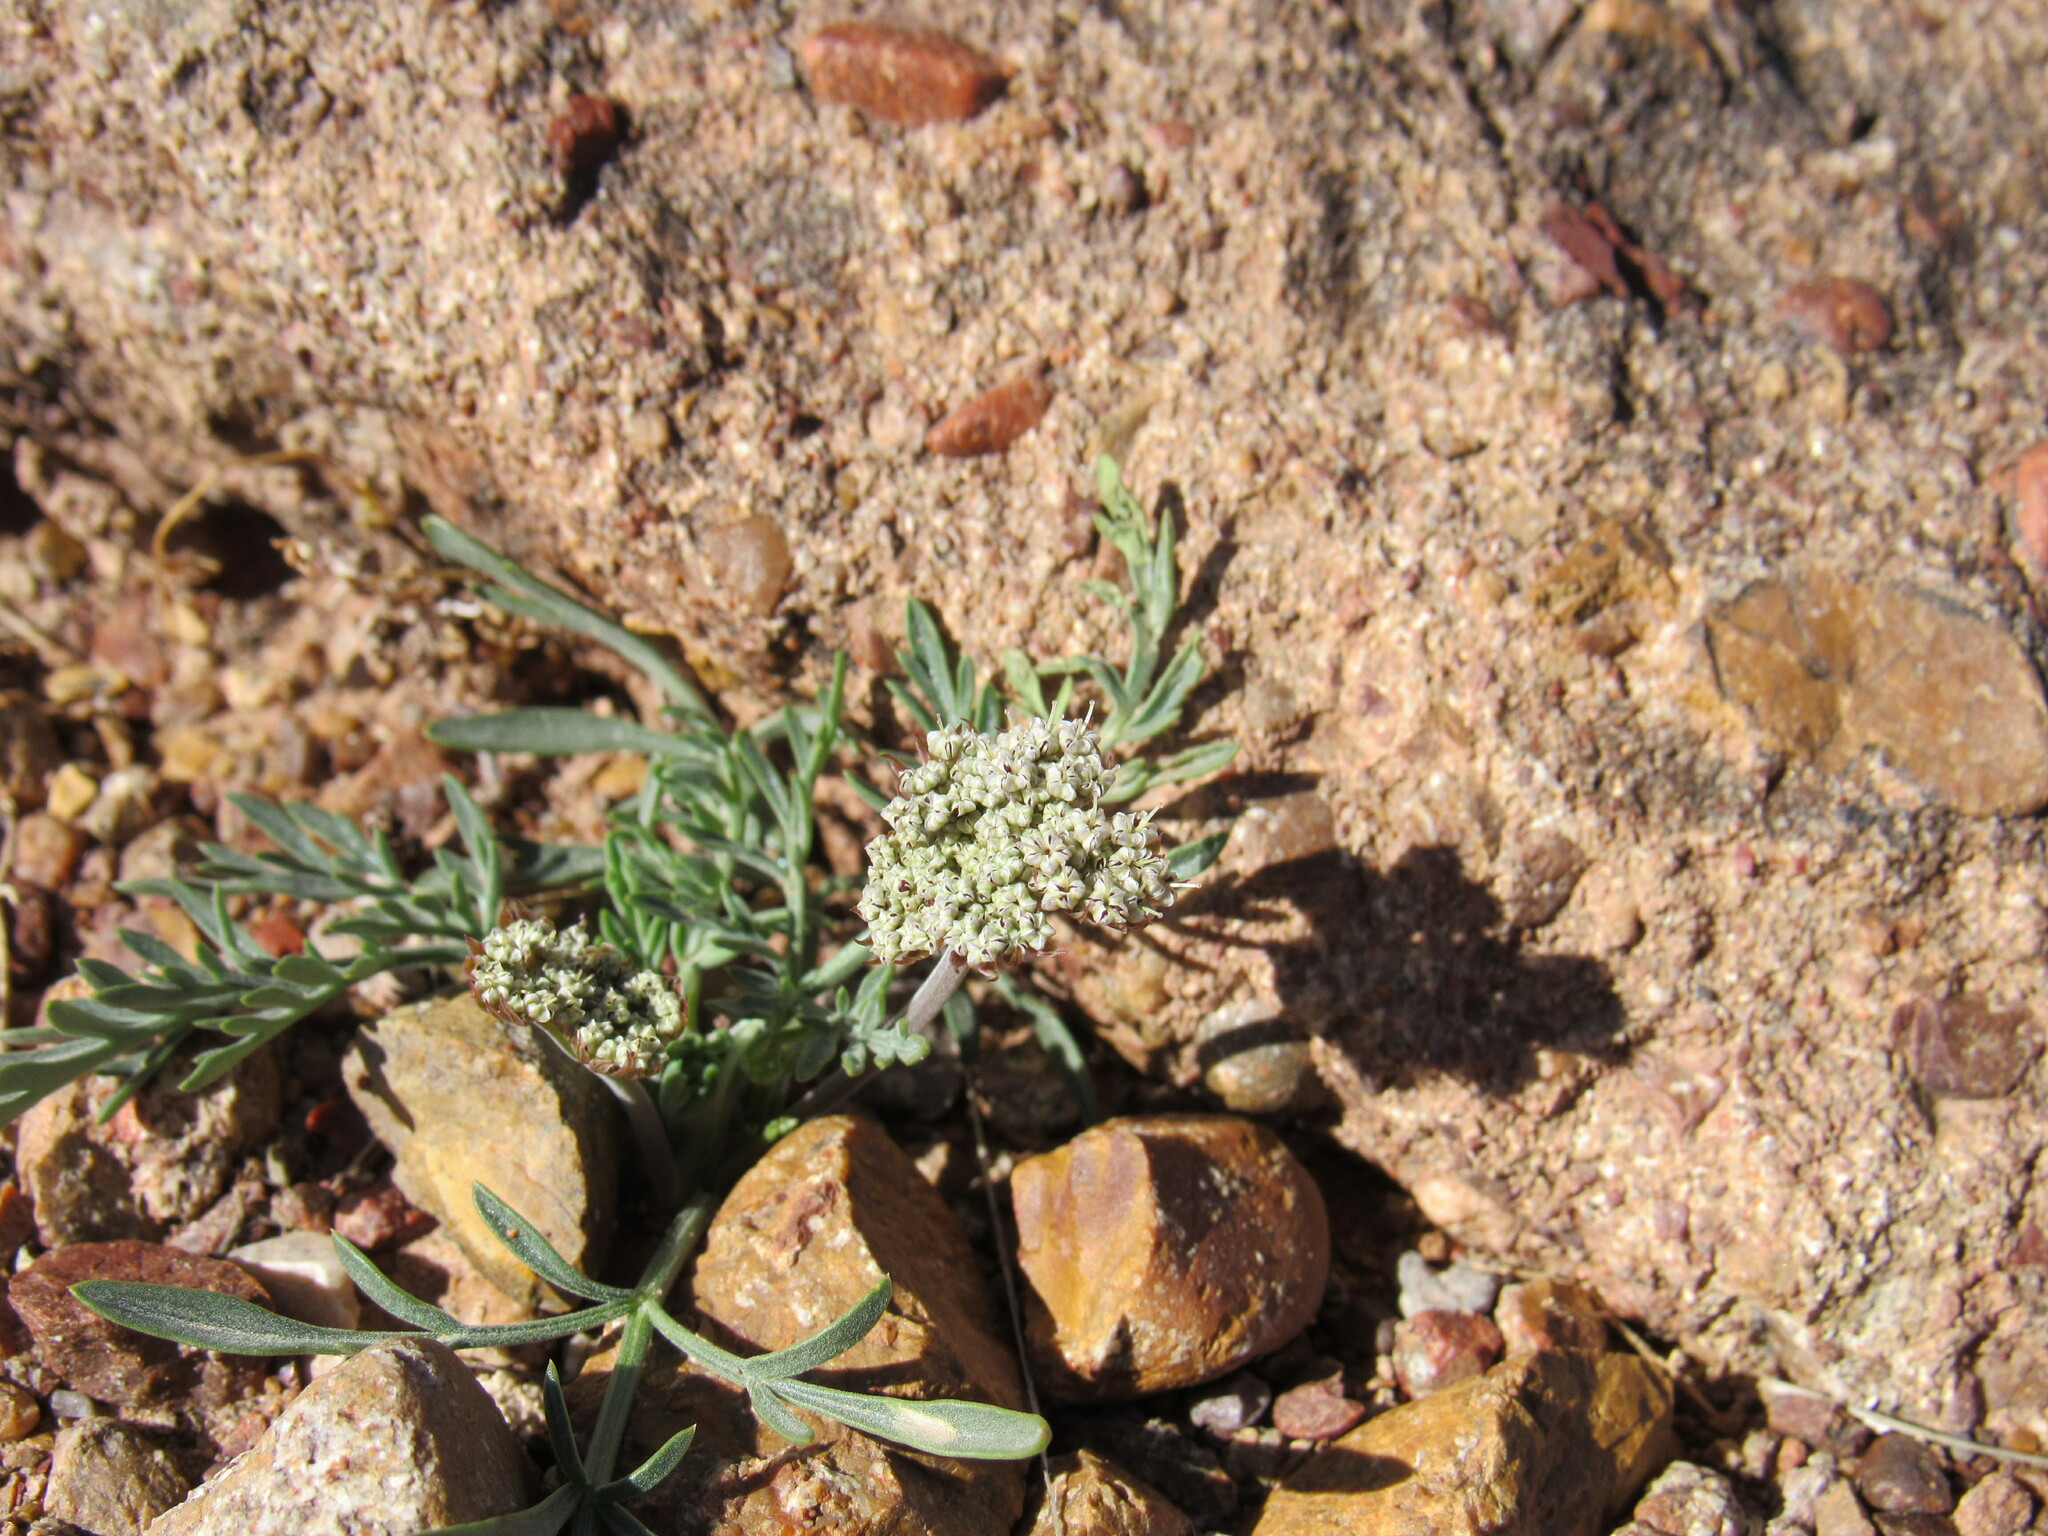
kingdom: Plantae
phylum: Tracheophyta
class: Magnoliopsida
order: Apiales
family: Apiaceae
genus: Lomatium
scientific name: Lomatium nevadense
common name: Nevada lomatium
